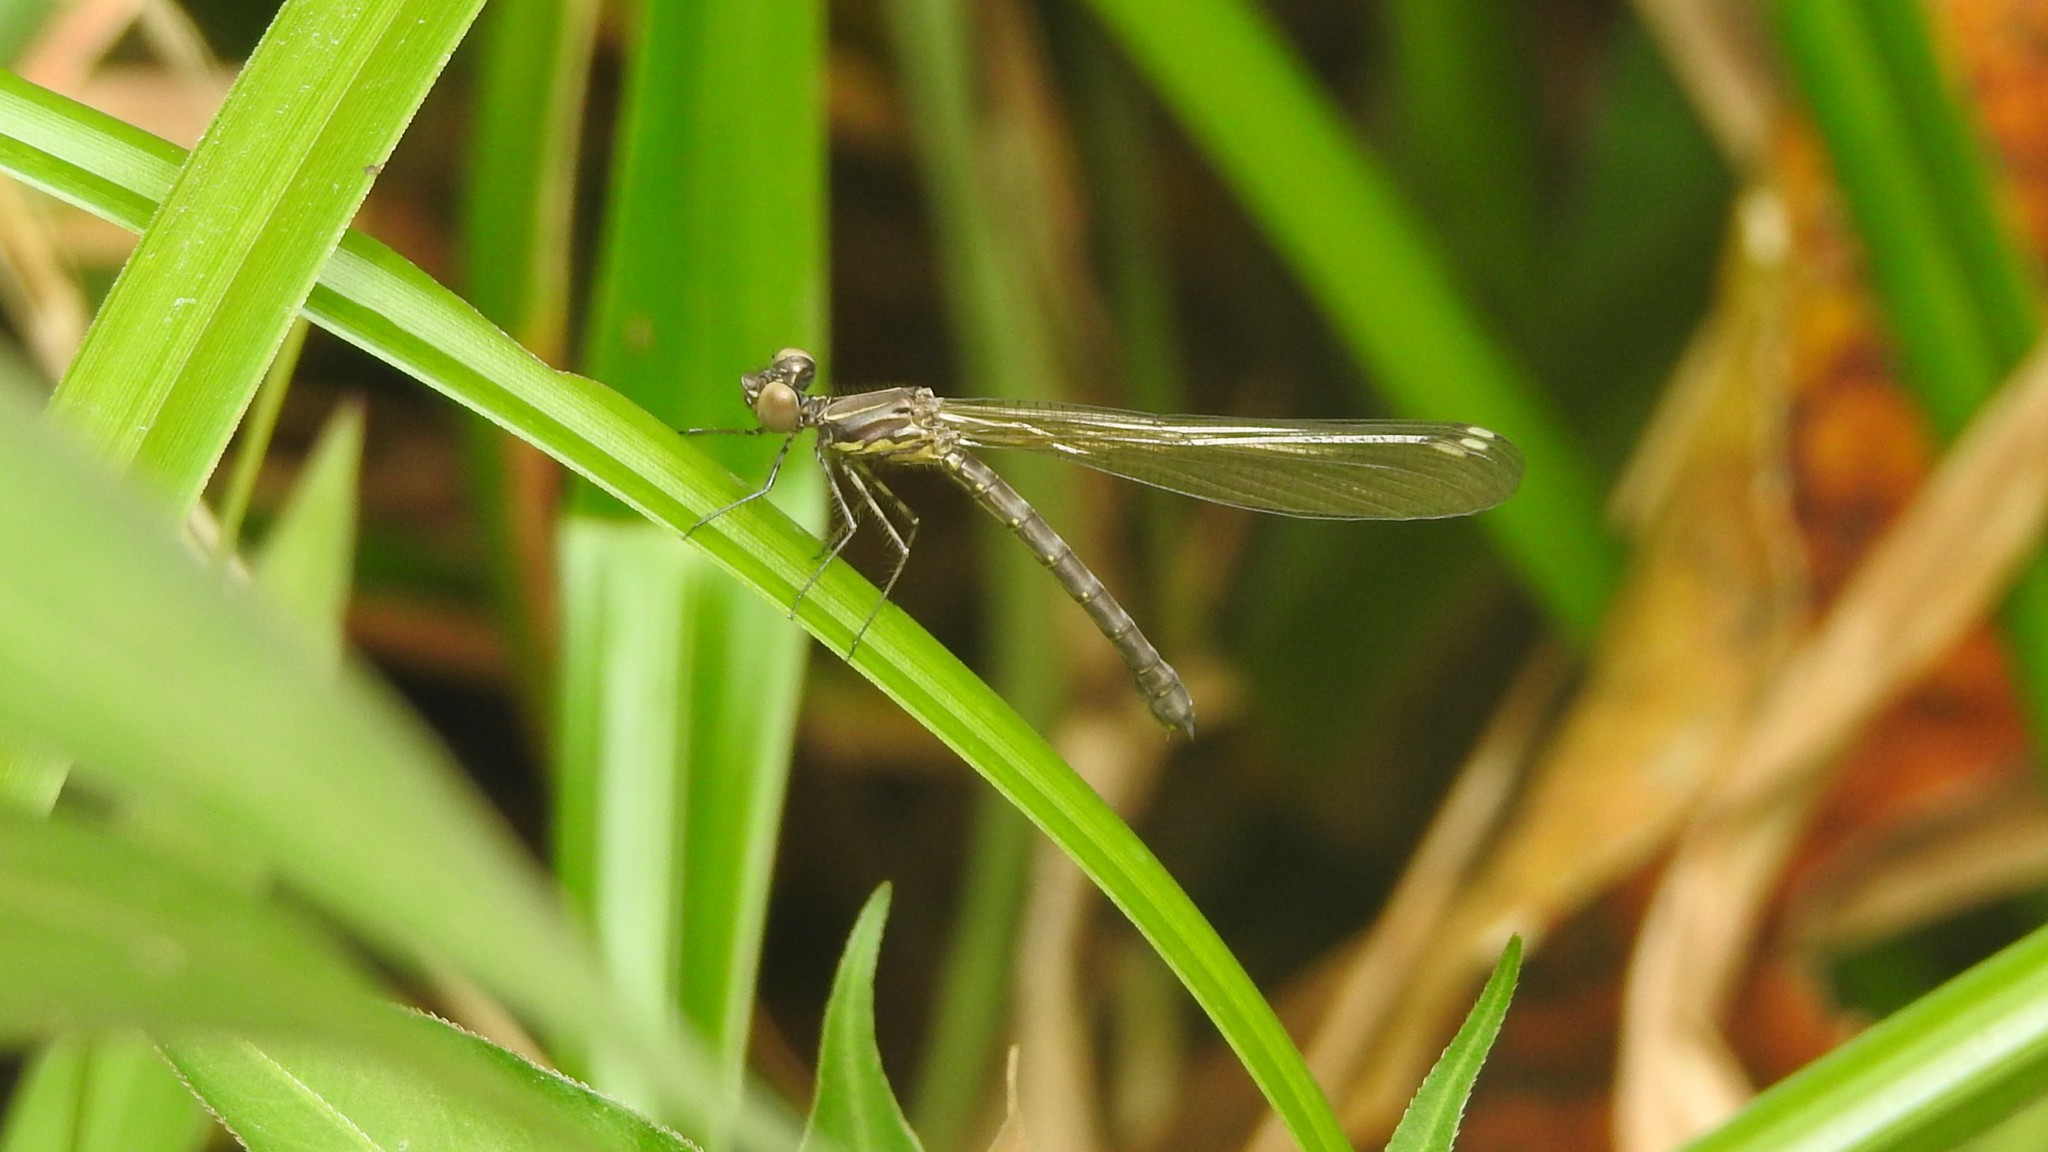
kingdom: Animalia
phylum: Arthropoda
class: Insecta
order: Odonata
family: Chlorocyphidae
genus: Heliocypha
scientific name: Heliocypha bisignata
